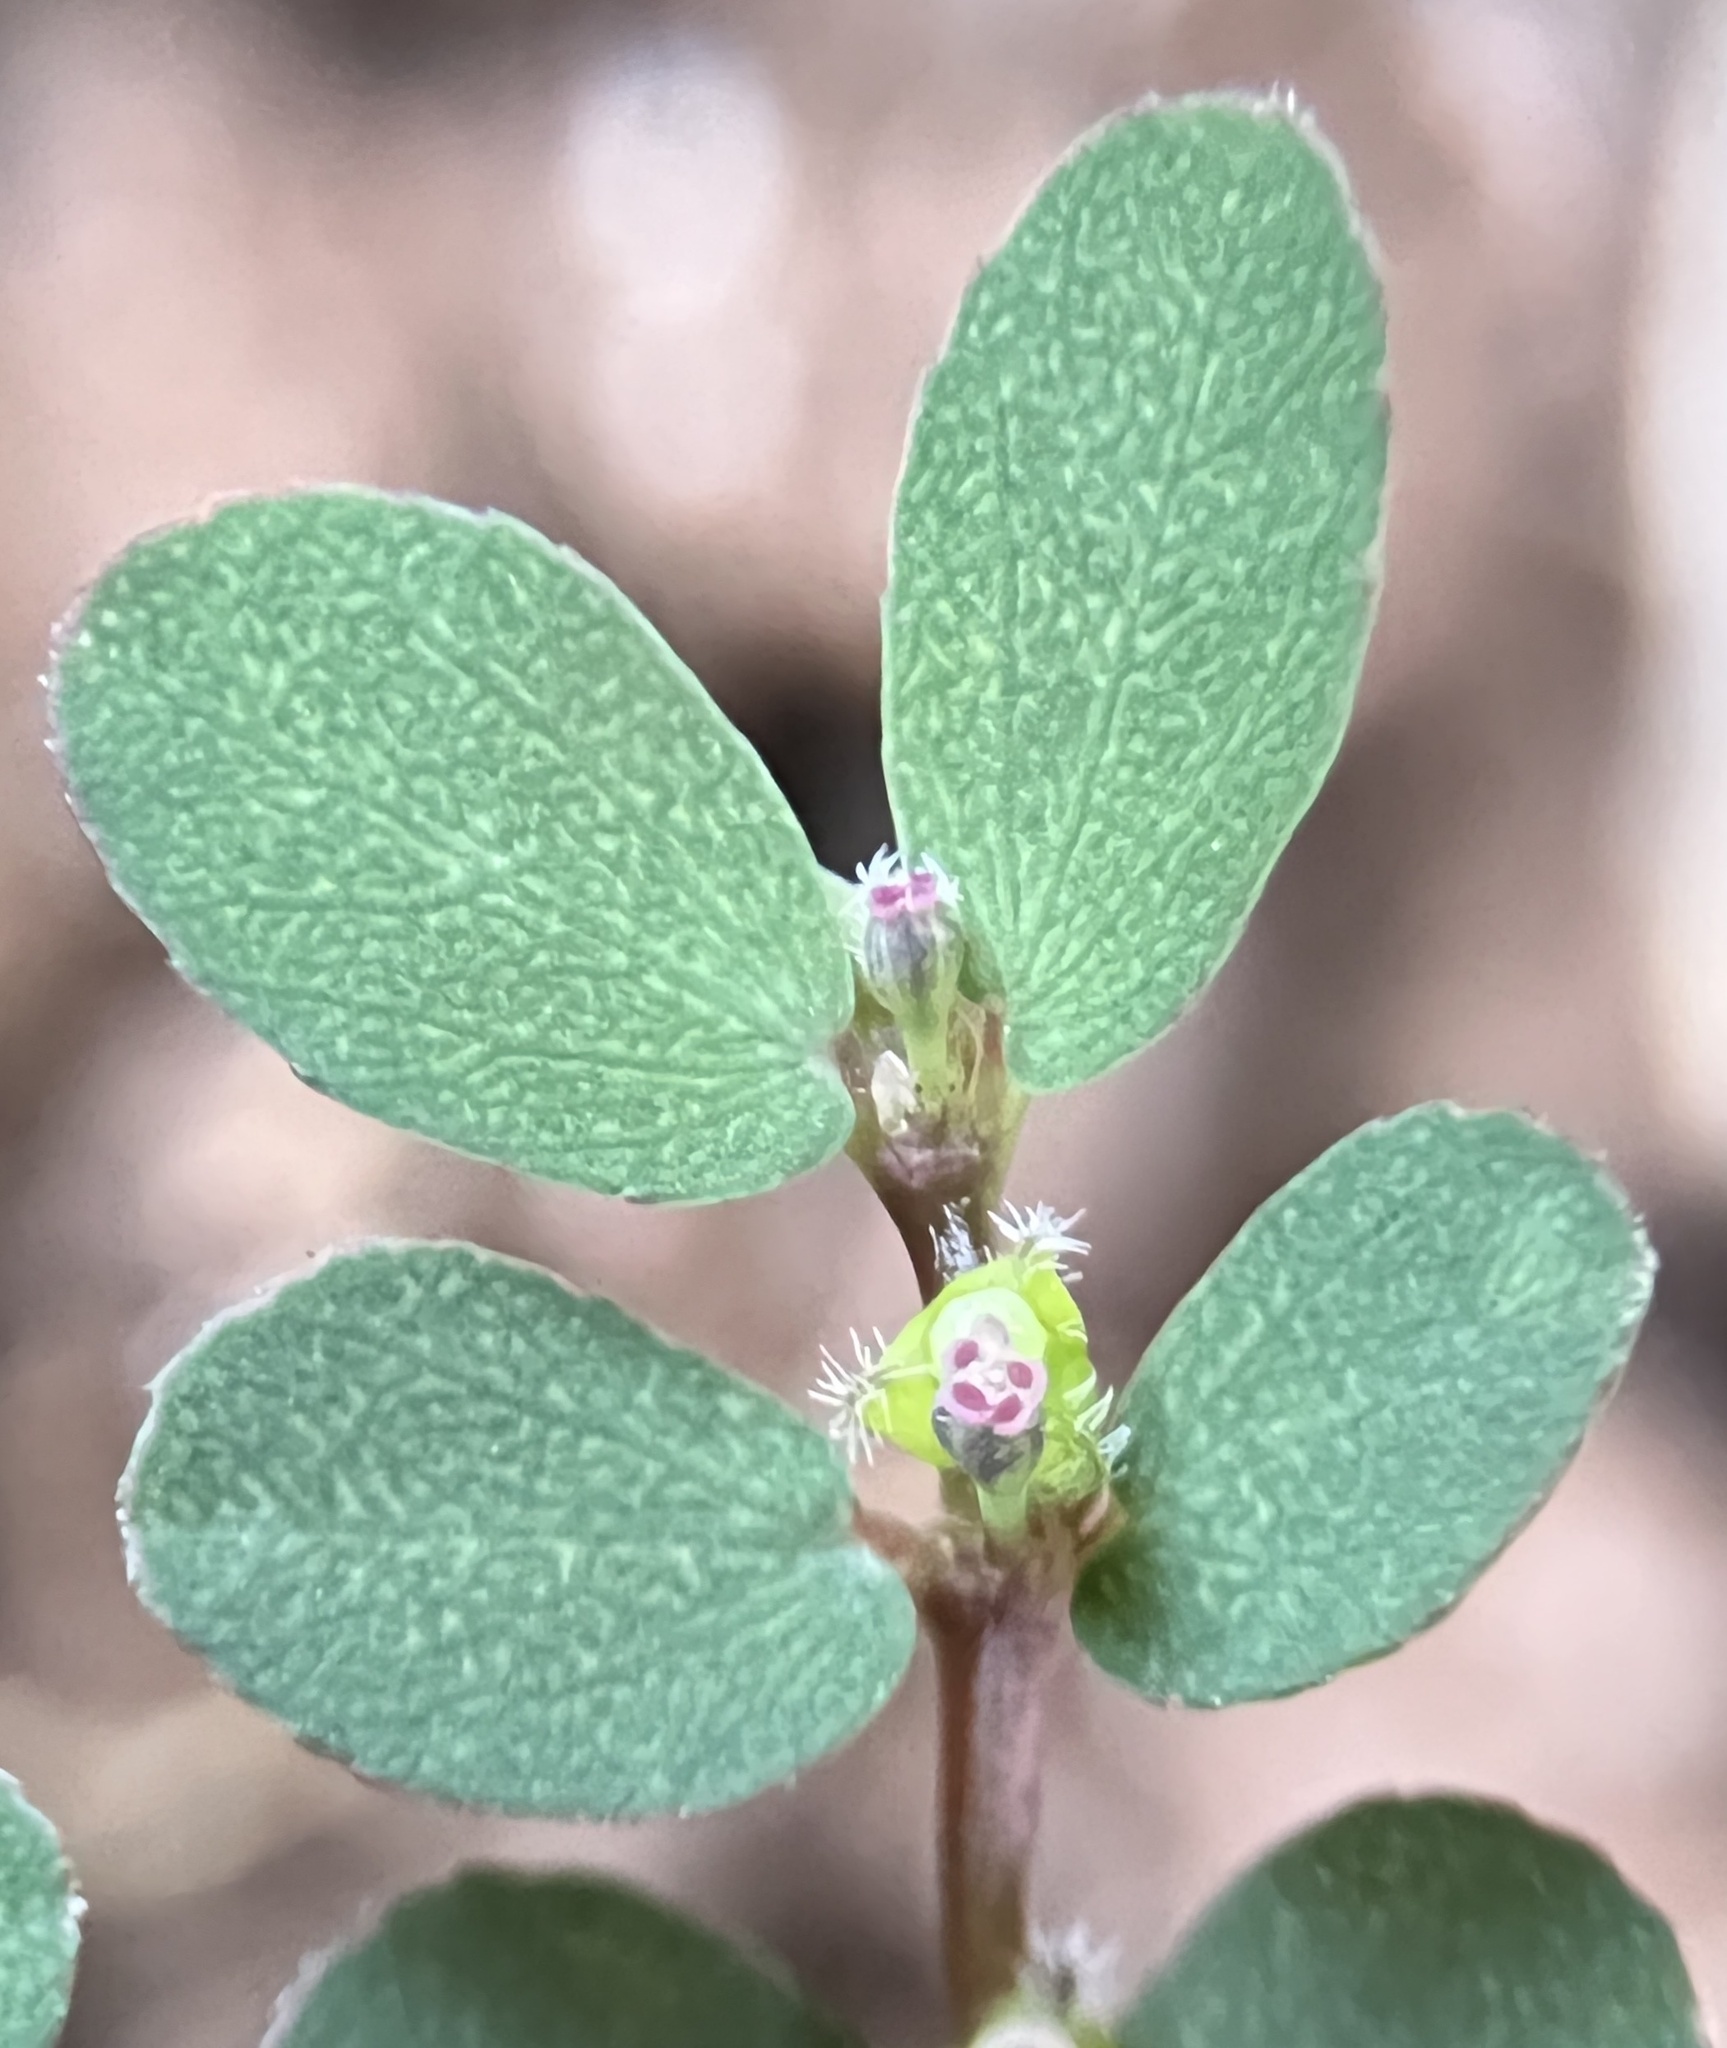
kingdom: Plantae
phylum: Tracheophyta
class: Magnoliopsida
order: Malpighiales
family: Euphorbiaceae
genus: Euphorbia
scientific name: Euphorbia prostrata
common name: Prostrate sandmat
